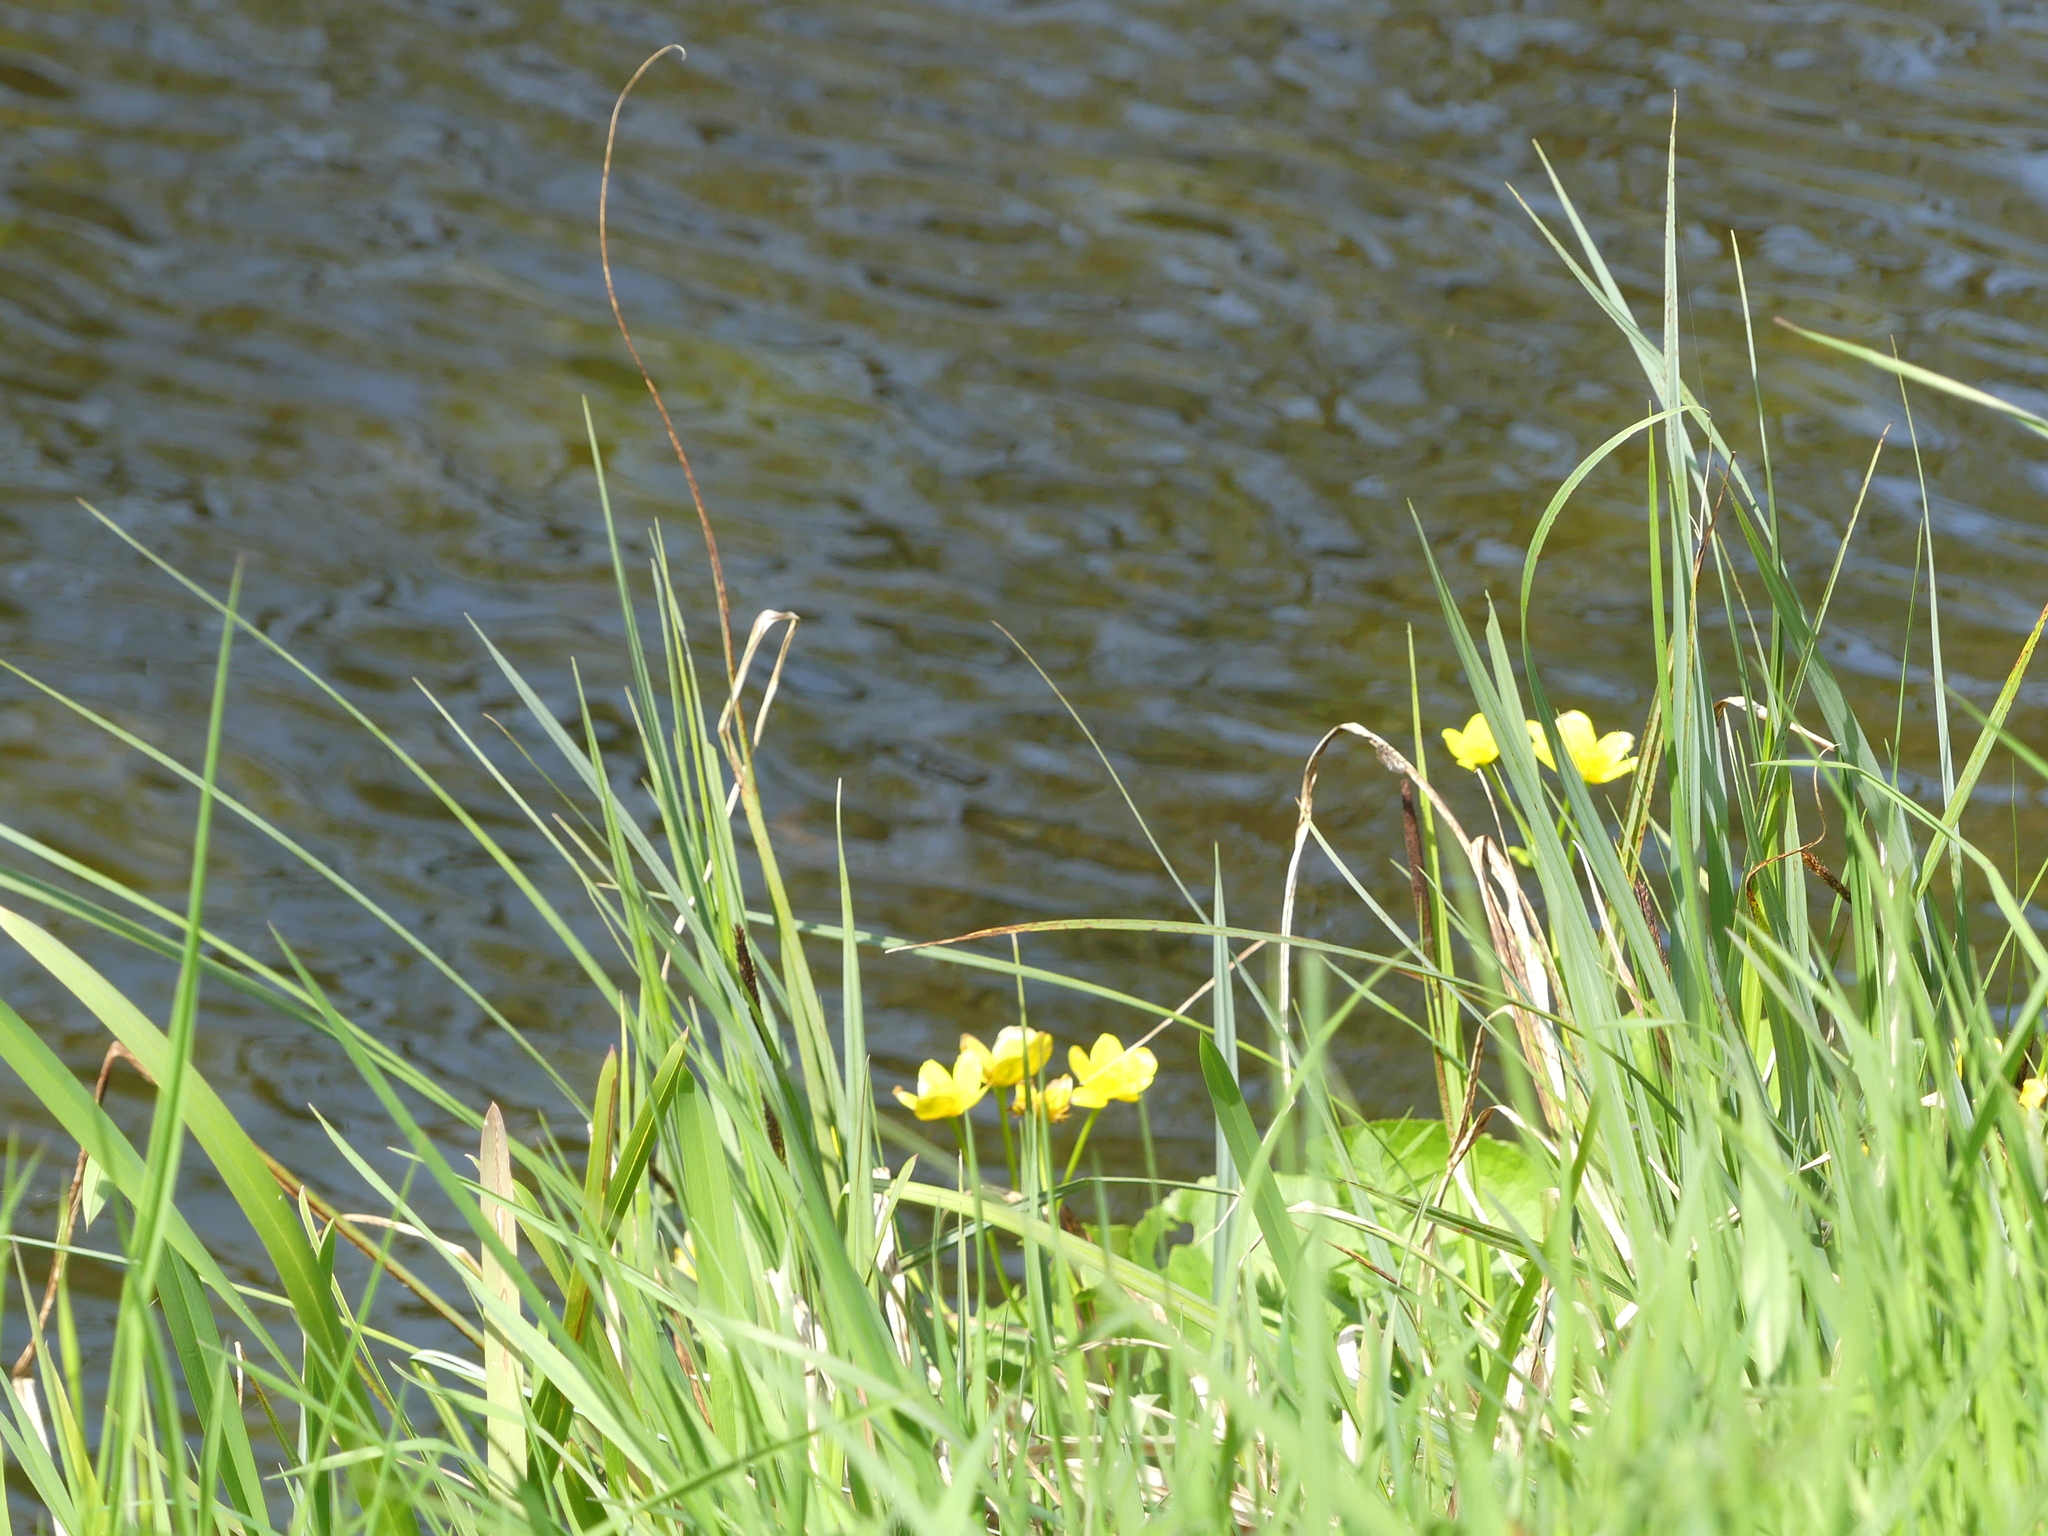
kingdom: Plantae
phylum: Tracheophyta
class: Magnoliopsida
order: Ranunculales
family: Ranunculaceae
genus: Caltha
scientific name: Caltha palustris
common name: Marsh marigold
